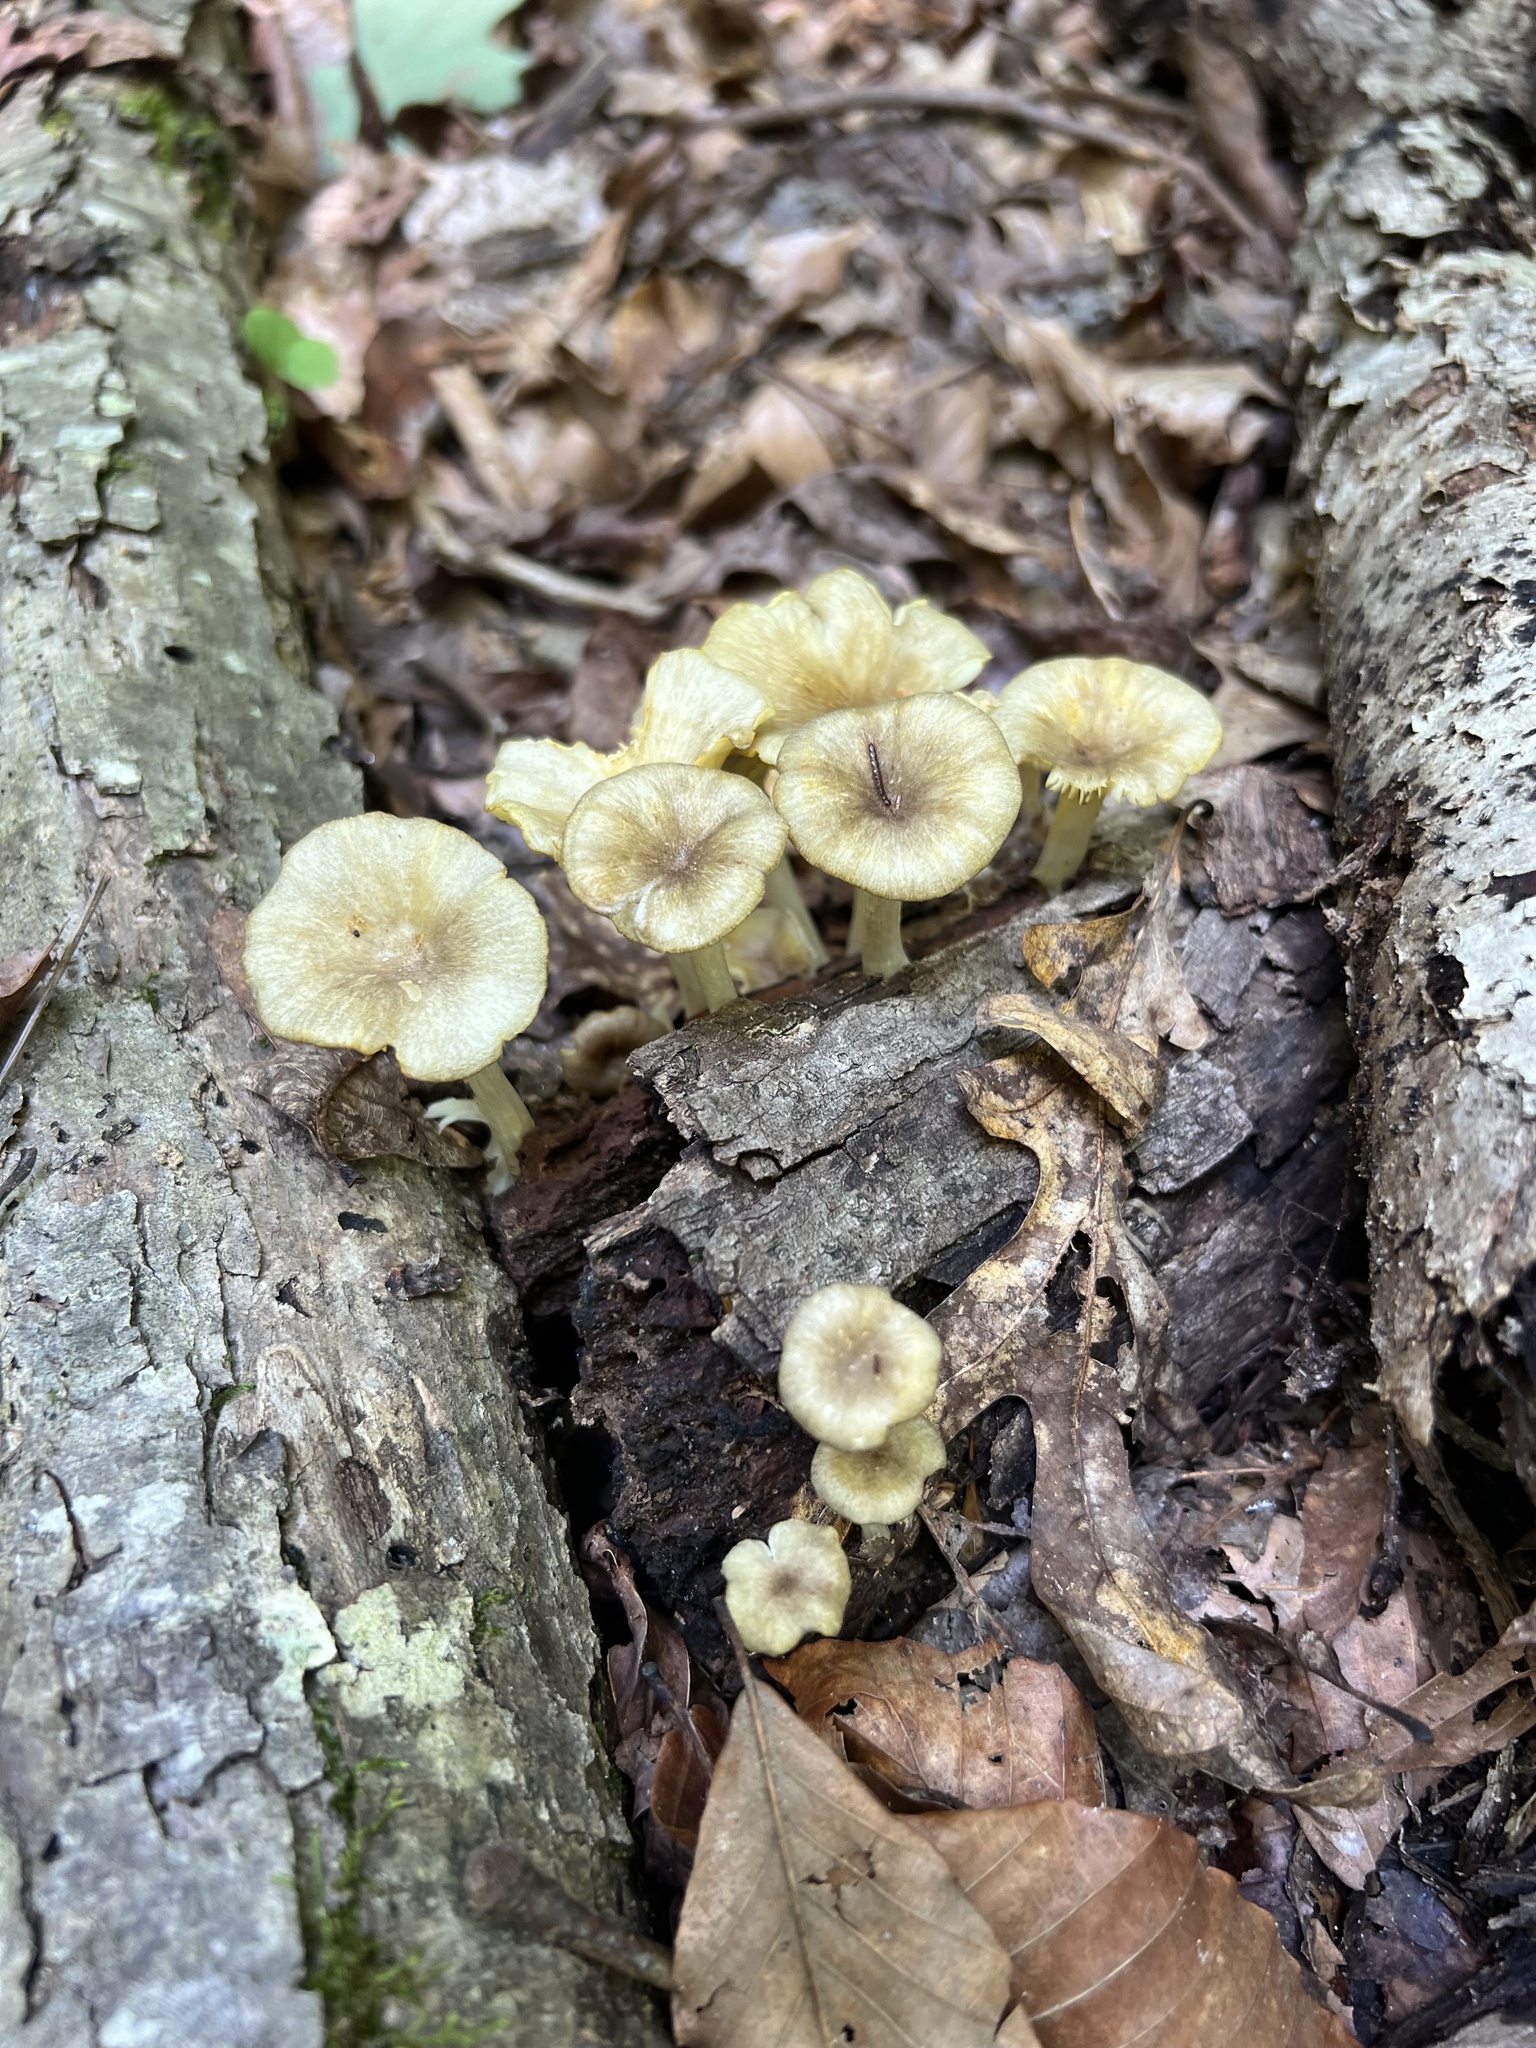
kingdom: Fungi
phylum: Basidiomycota
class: Agaricomycetes
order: Agaricales
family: Marasmiaceae
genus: Gerronema
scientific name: Gerronema strombodes
